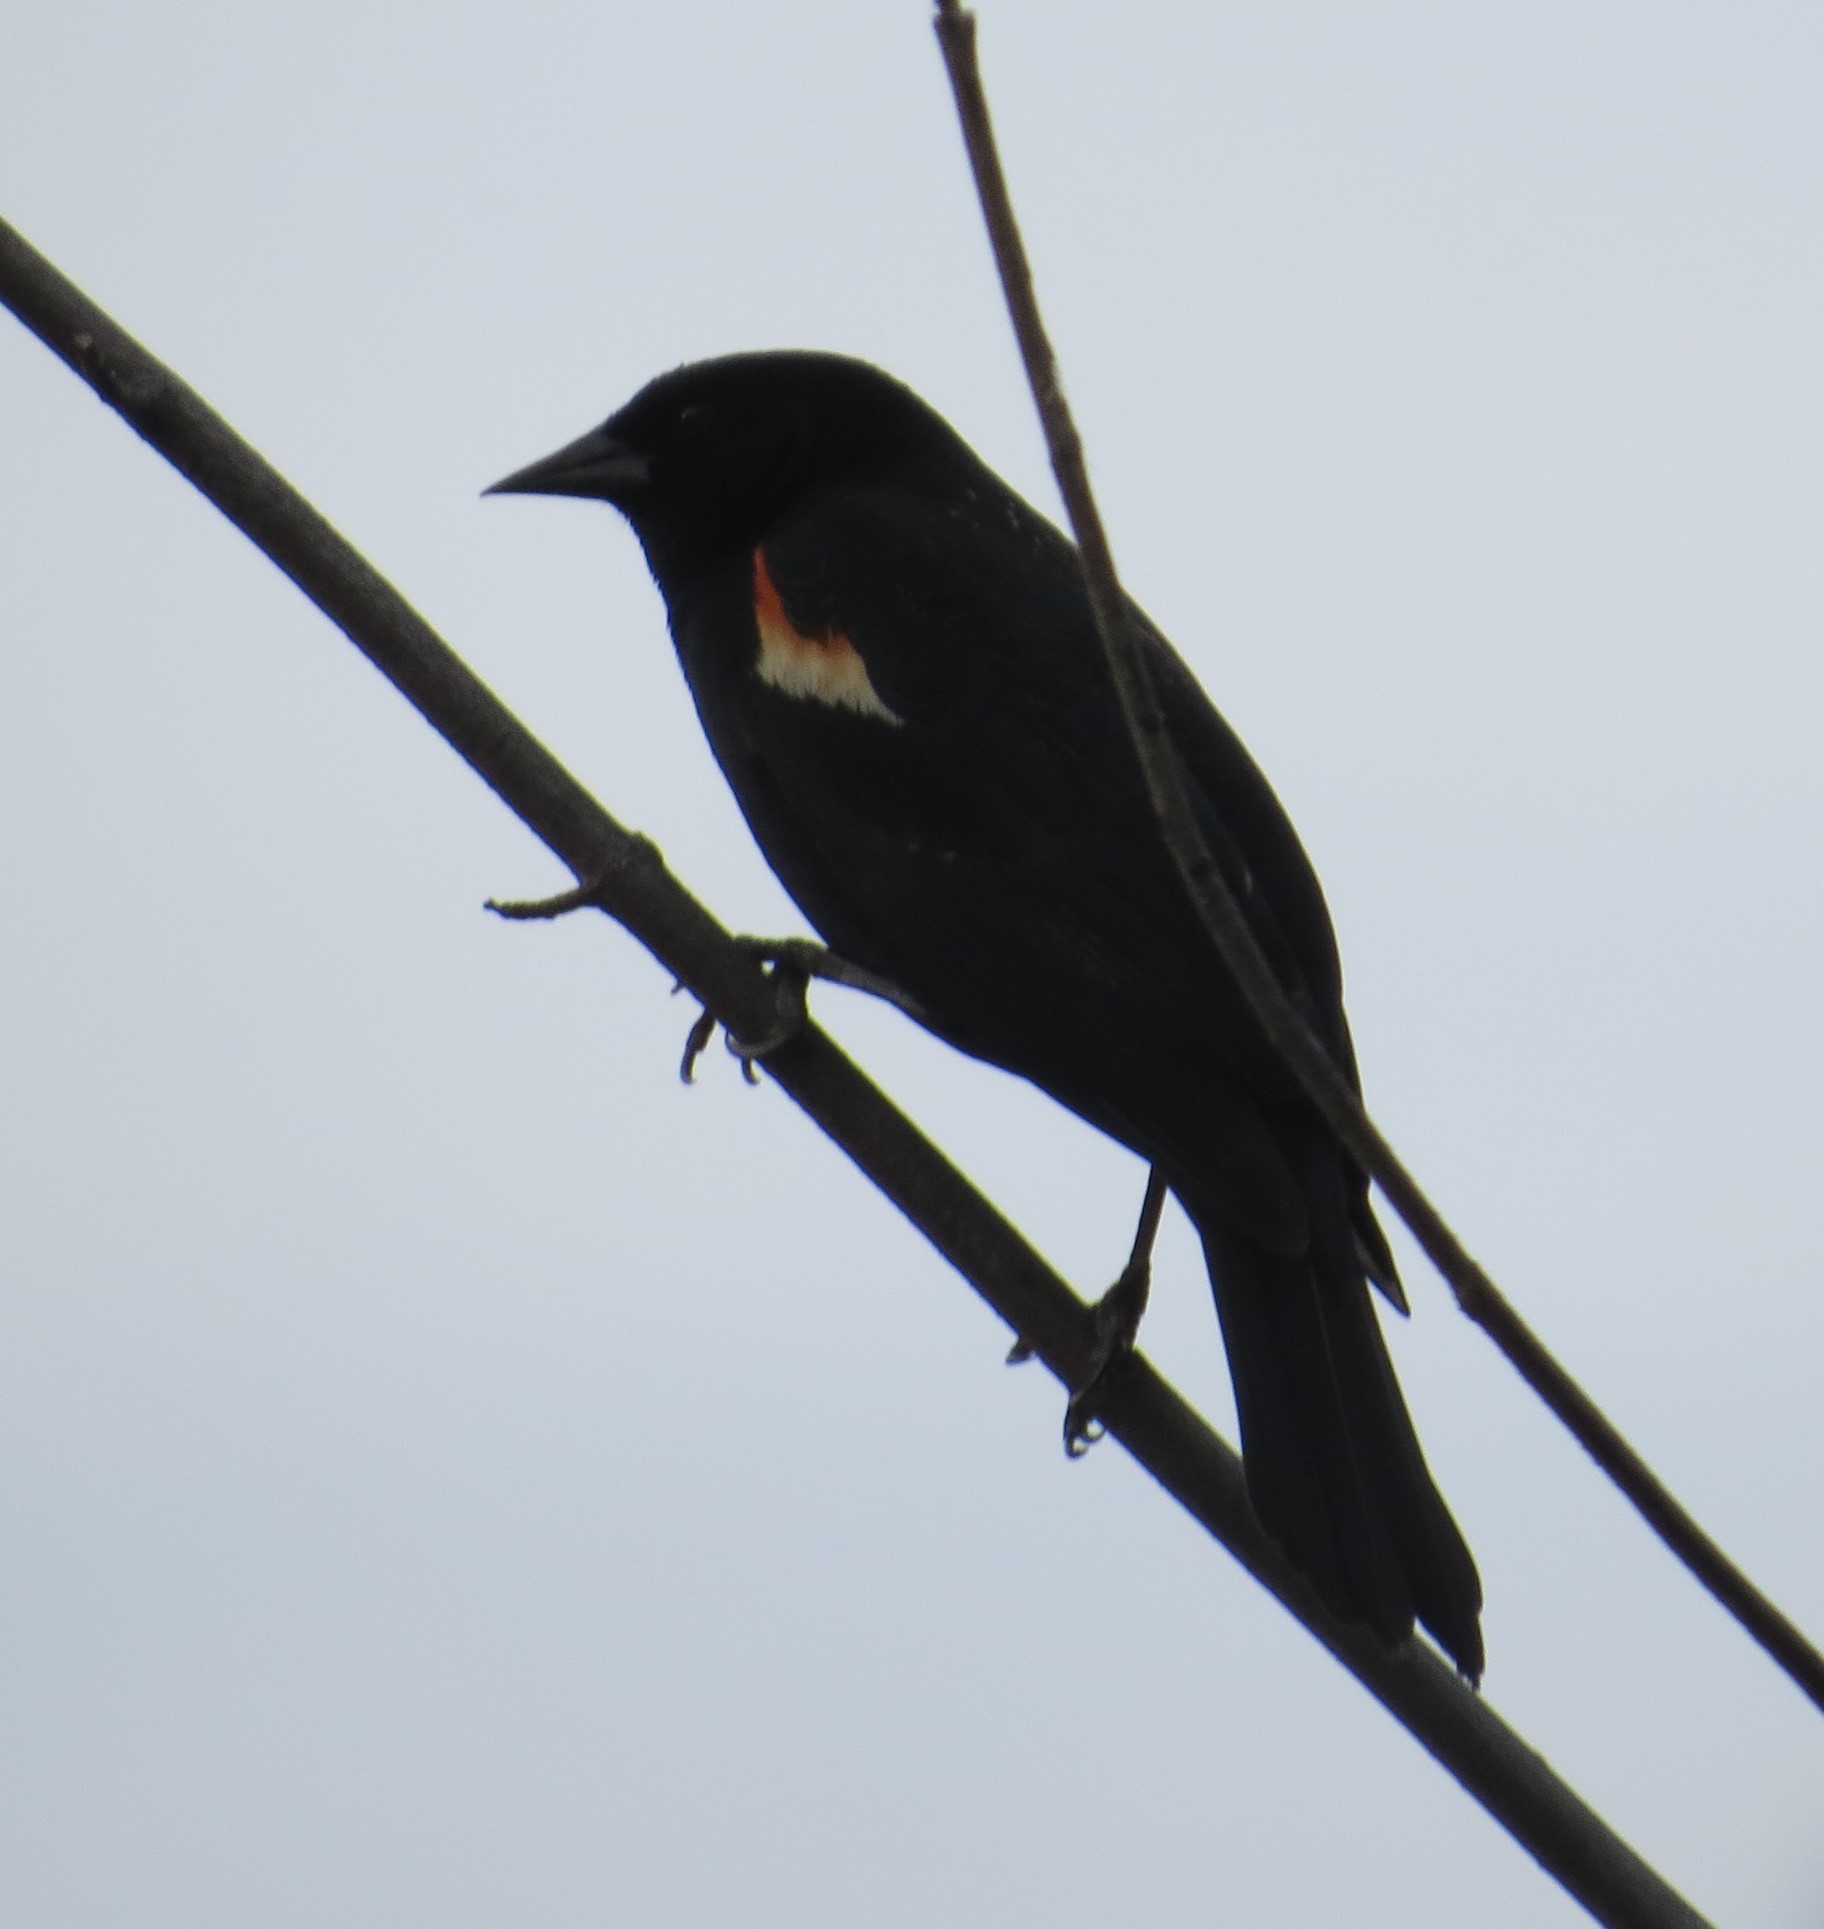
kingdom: Animalia
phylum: Chordata
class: Aves
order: Passeriformes
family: Icteridae
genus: Agelaius
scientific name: Agelaius phoeniceus
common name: Red-winged blackbird
